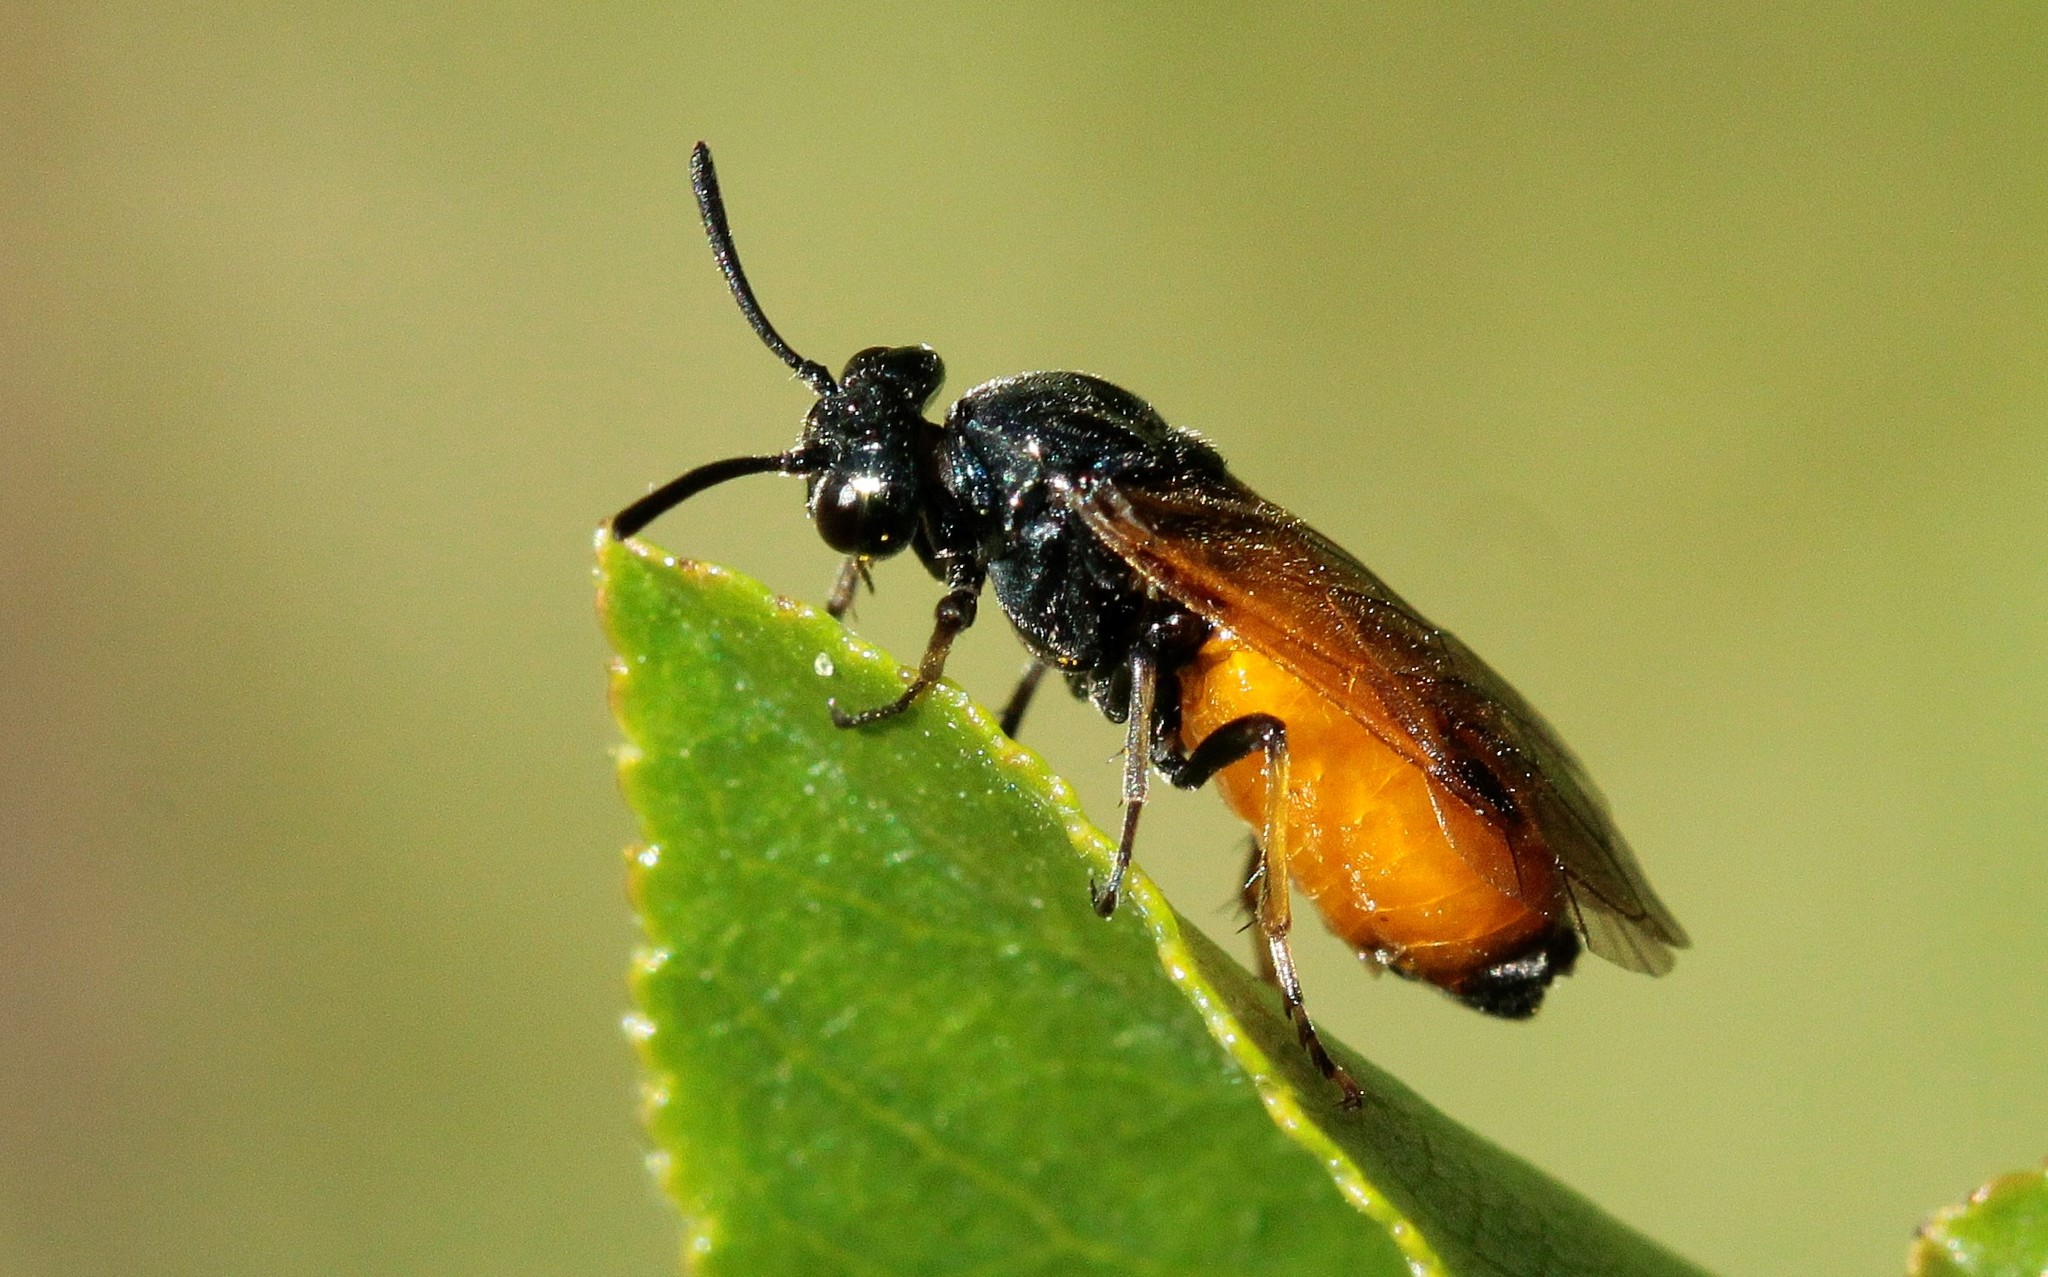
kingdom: Animalia
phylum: Arthropoda
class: Insecta
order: Hymenoptera
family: Argidae
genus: Arge
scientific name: Arge melanochra
